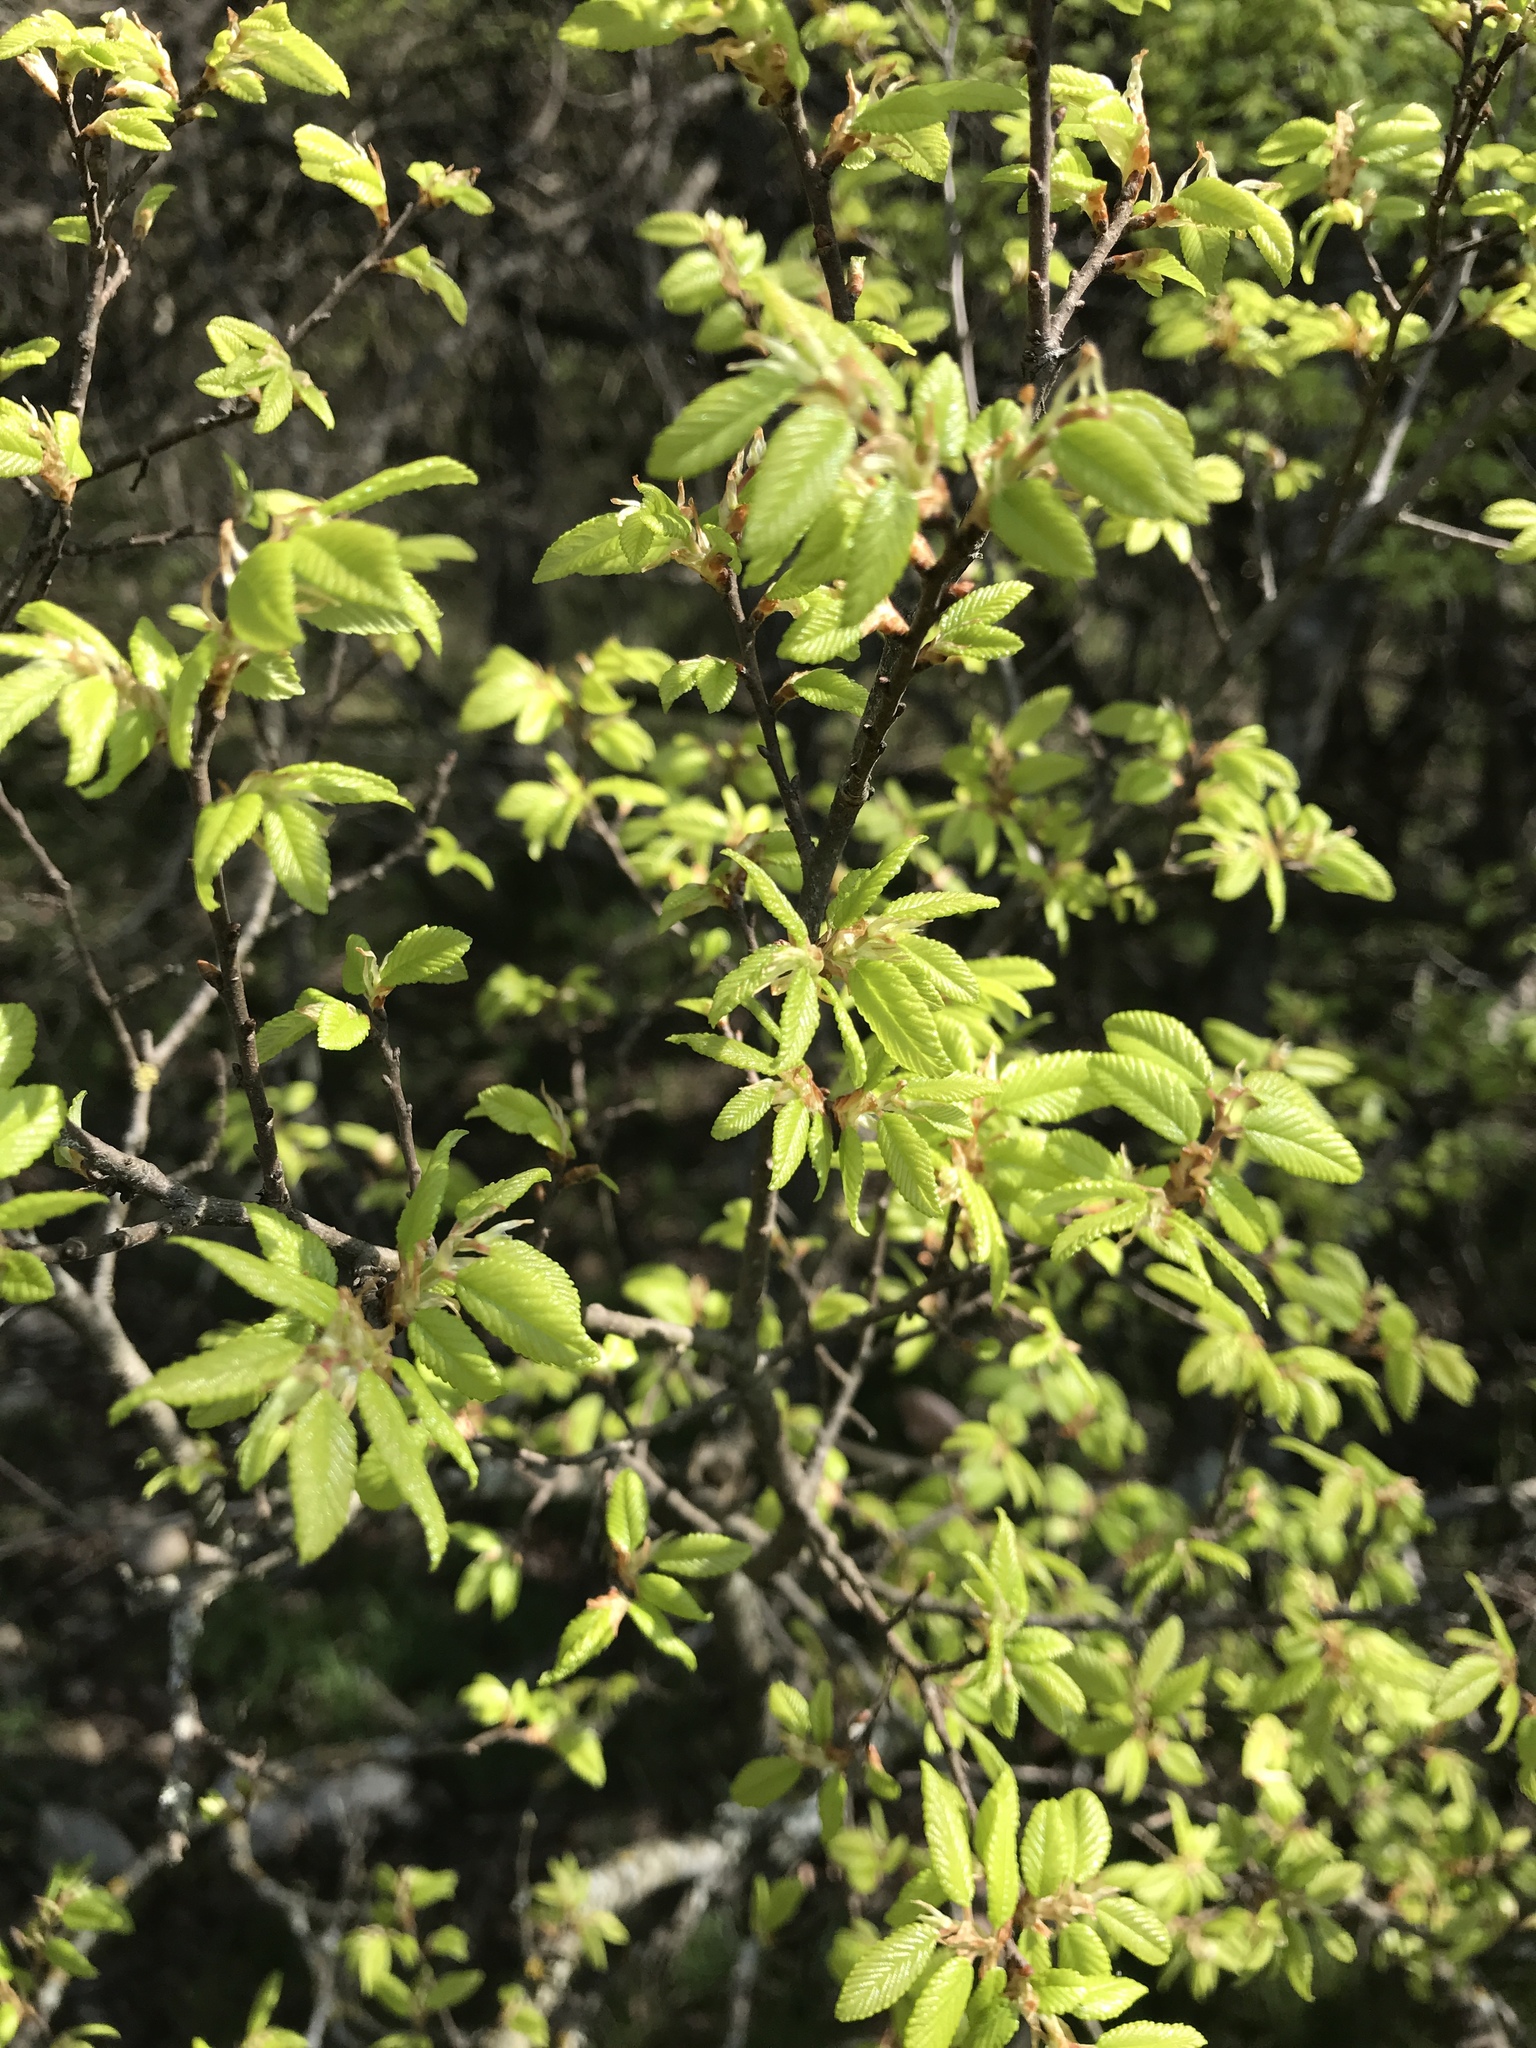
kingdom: Plantae
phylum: Tracheophyta
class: Magnoliopsida
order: Rosales
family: Ulmaceae
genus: Ulmus
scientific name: Ulmus crassifolia
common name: Basket elm
